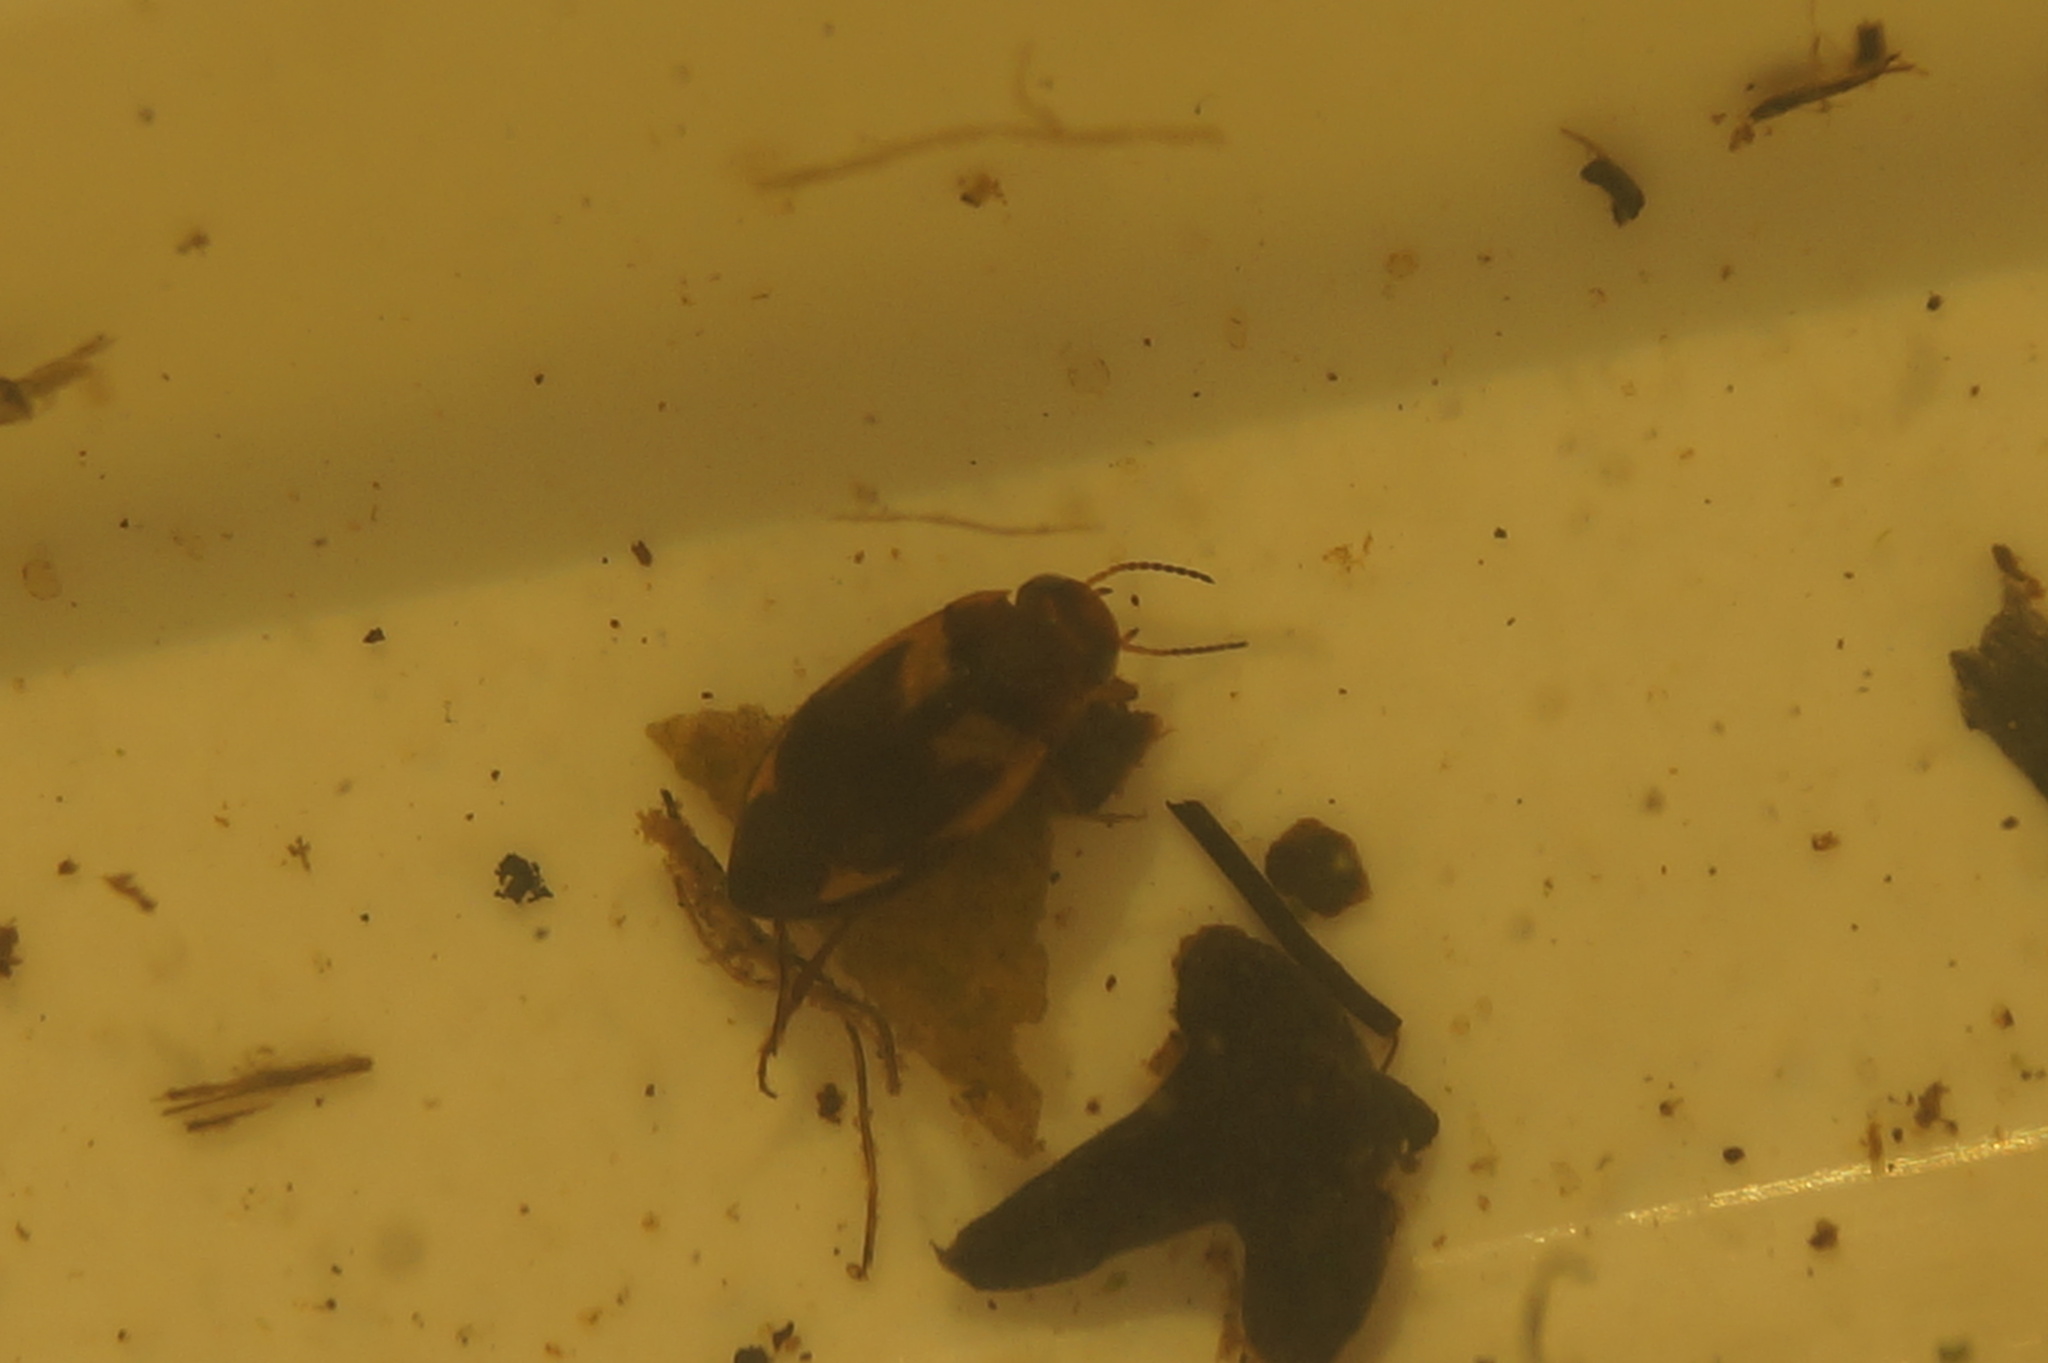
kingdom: Animalia
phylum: Arthropoda
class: Insecta
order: Coleoptera
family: Dytiscidae
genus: Hydroporus
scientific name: Hydroporus palustris
